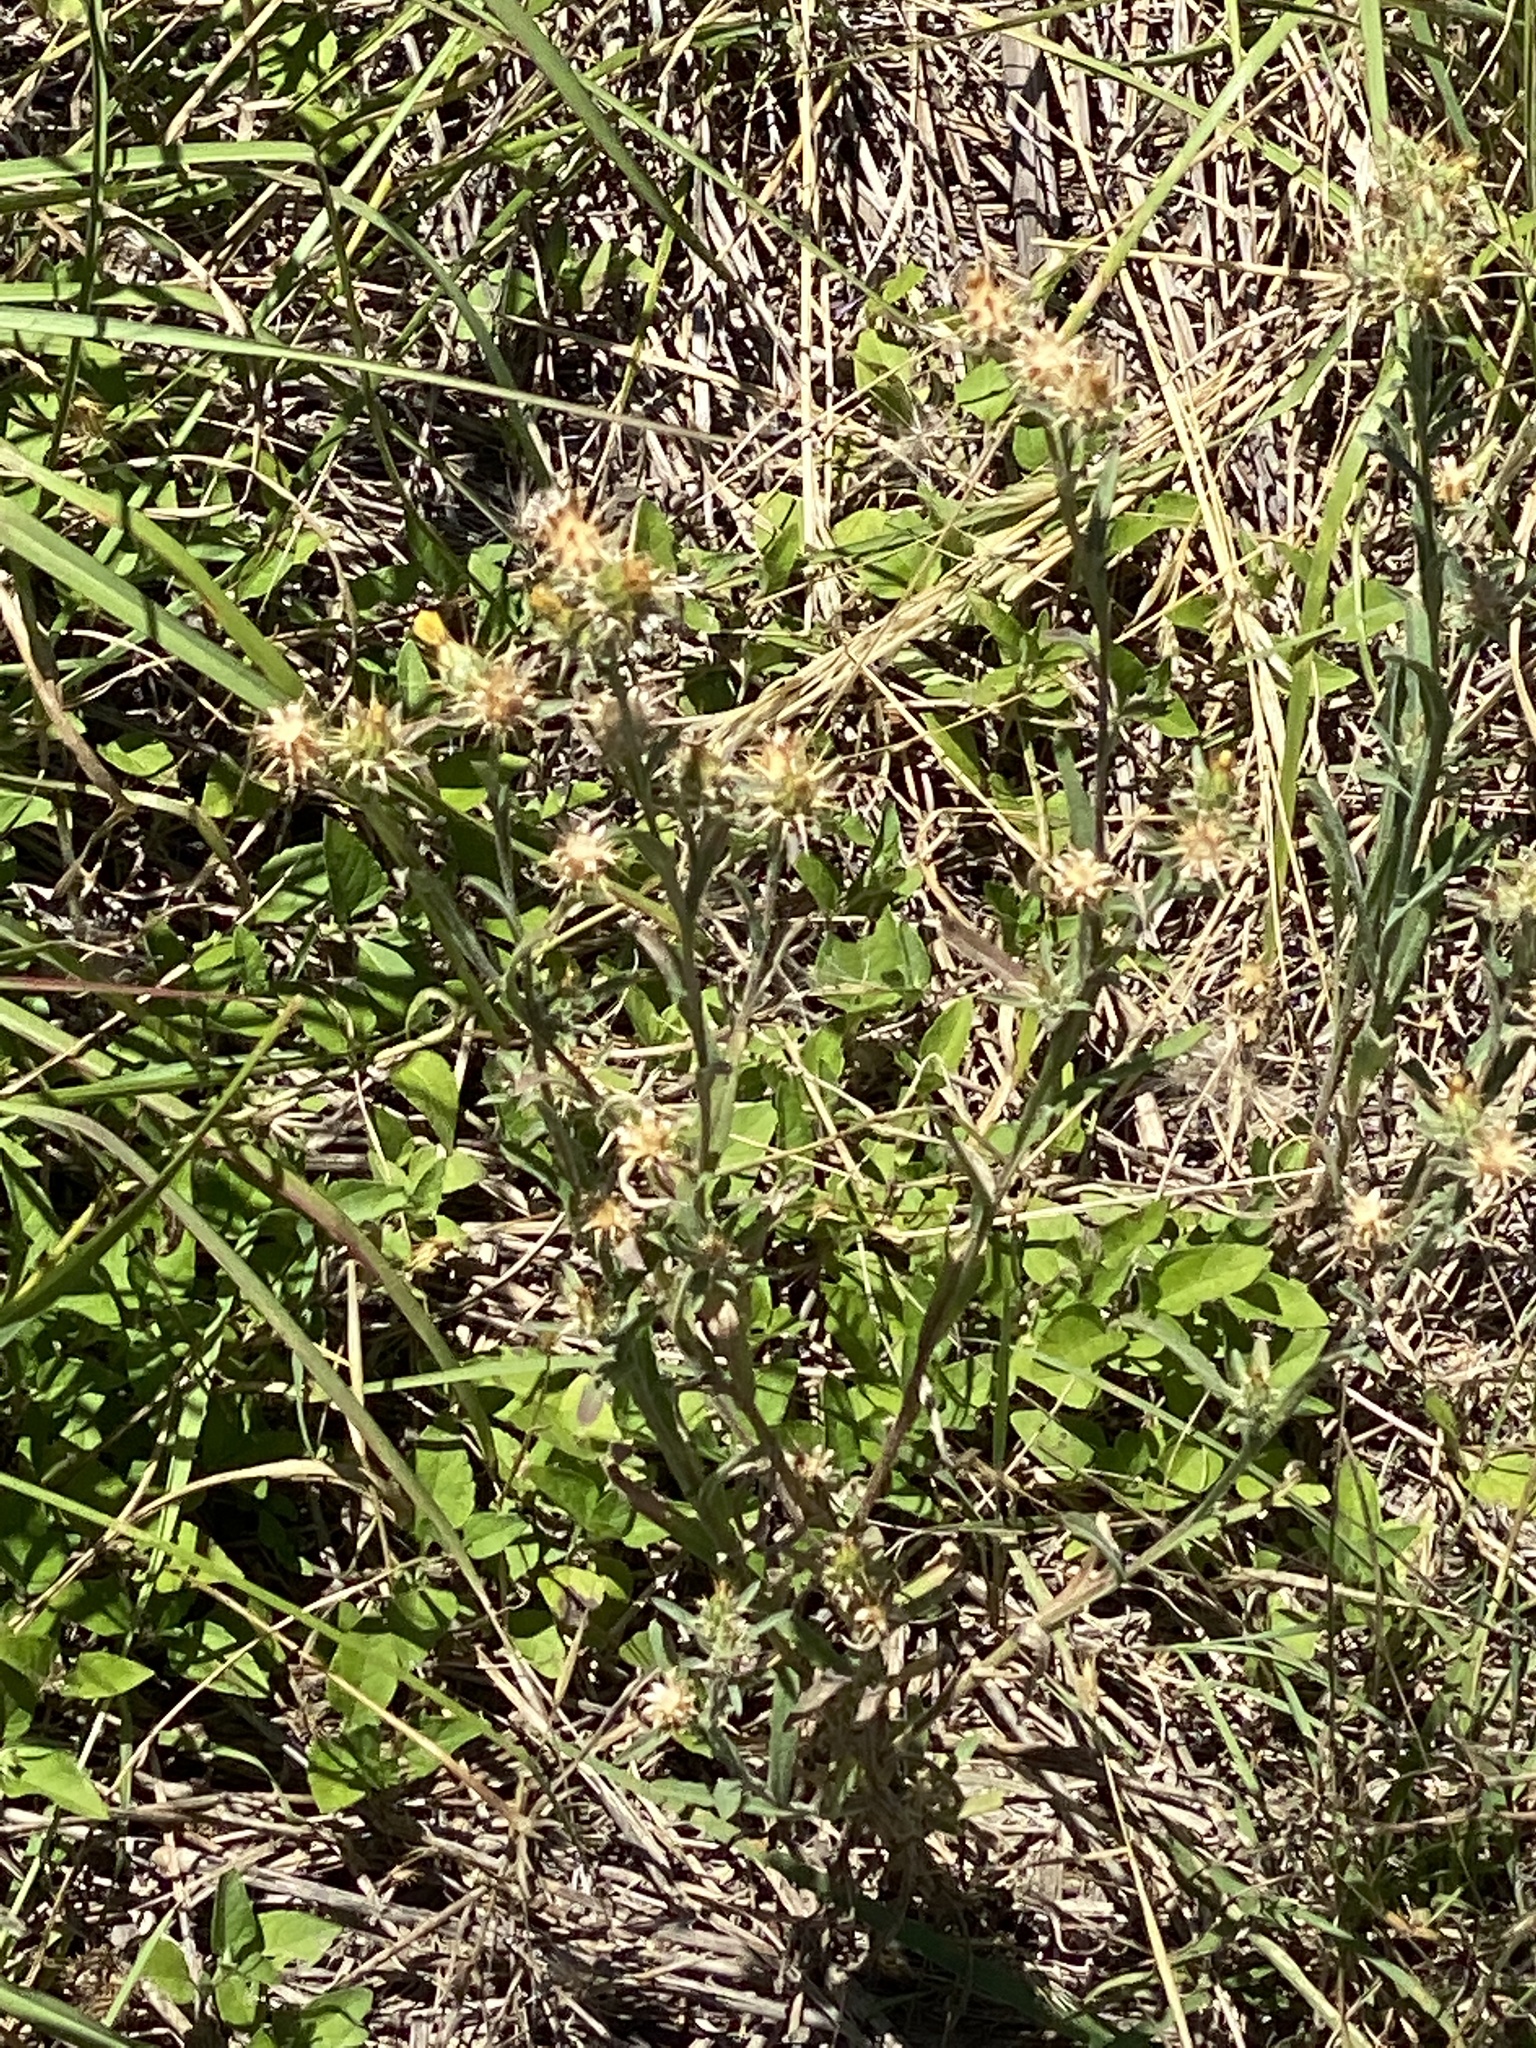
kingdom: Plantae
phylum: Tracheophyta
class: Magnoliopsida
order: Asterales
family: Asteraceae
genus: Centaurea
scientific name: Centaurea melitensis
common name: Maltese star-thistle
